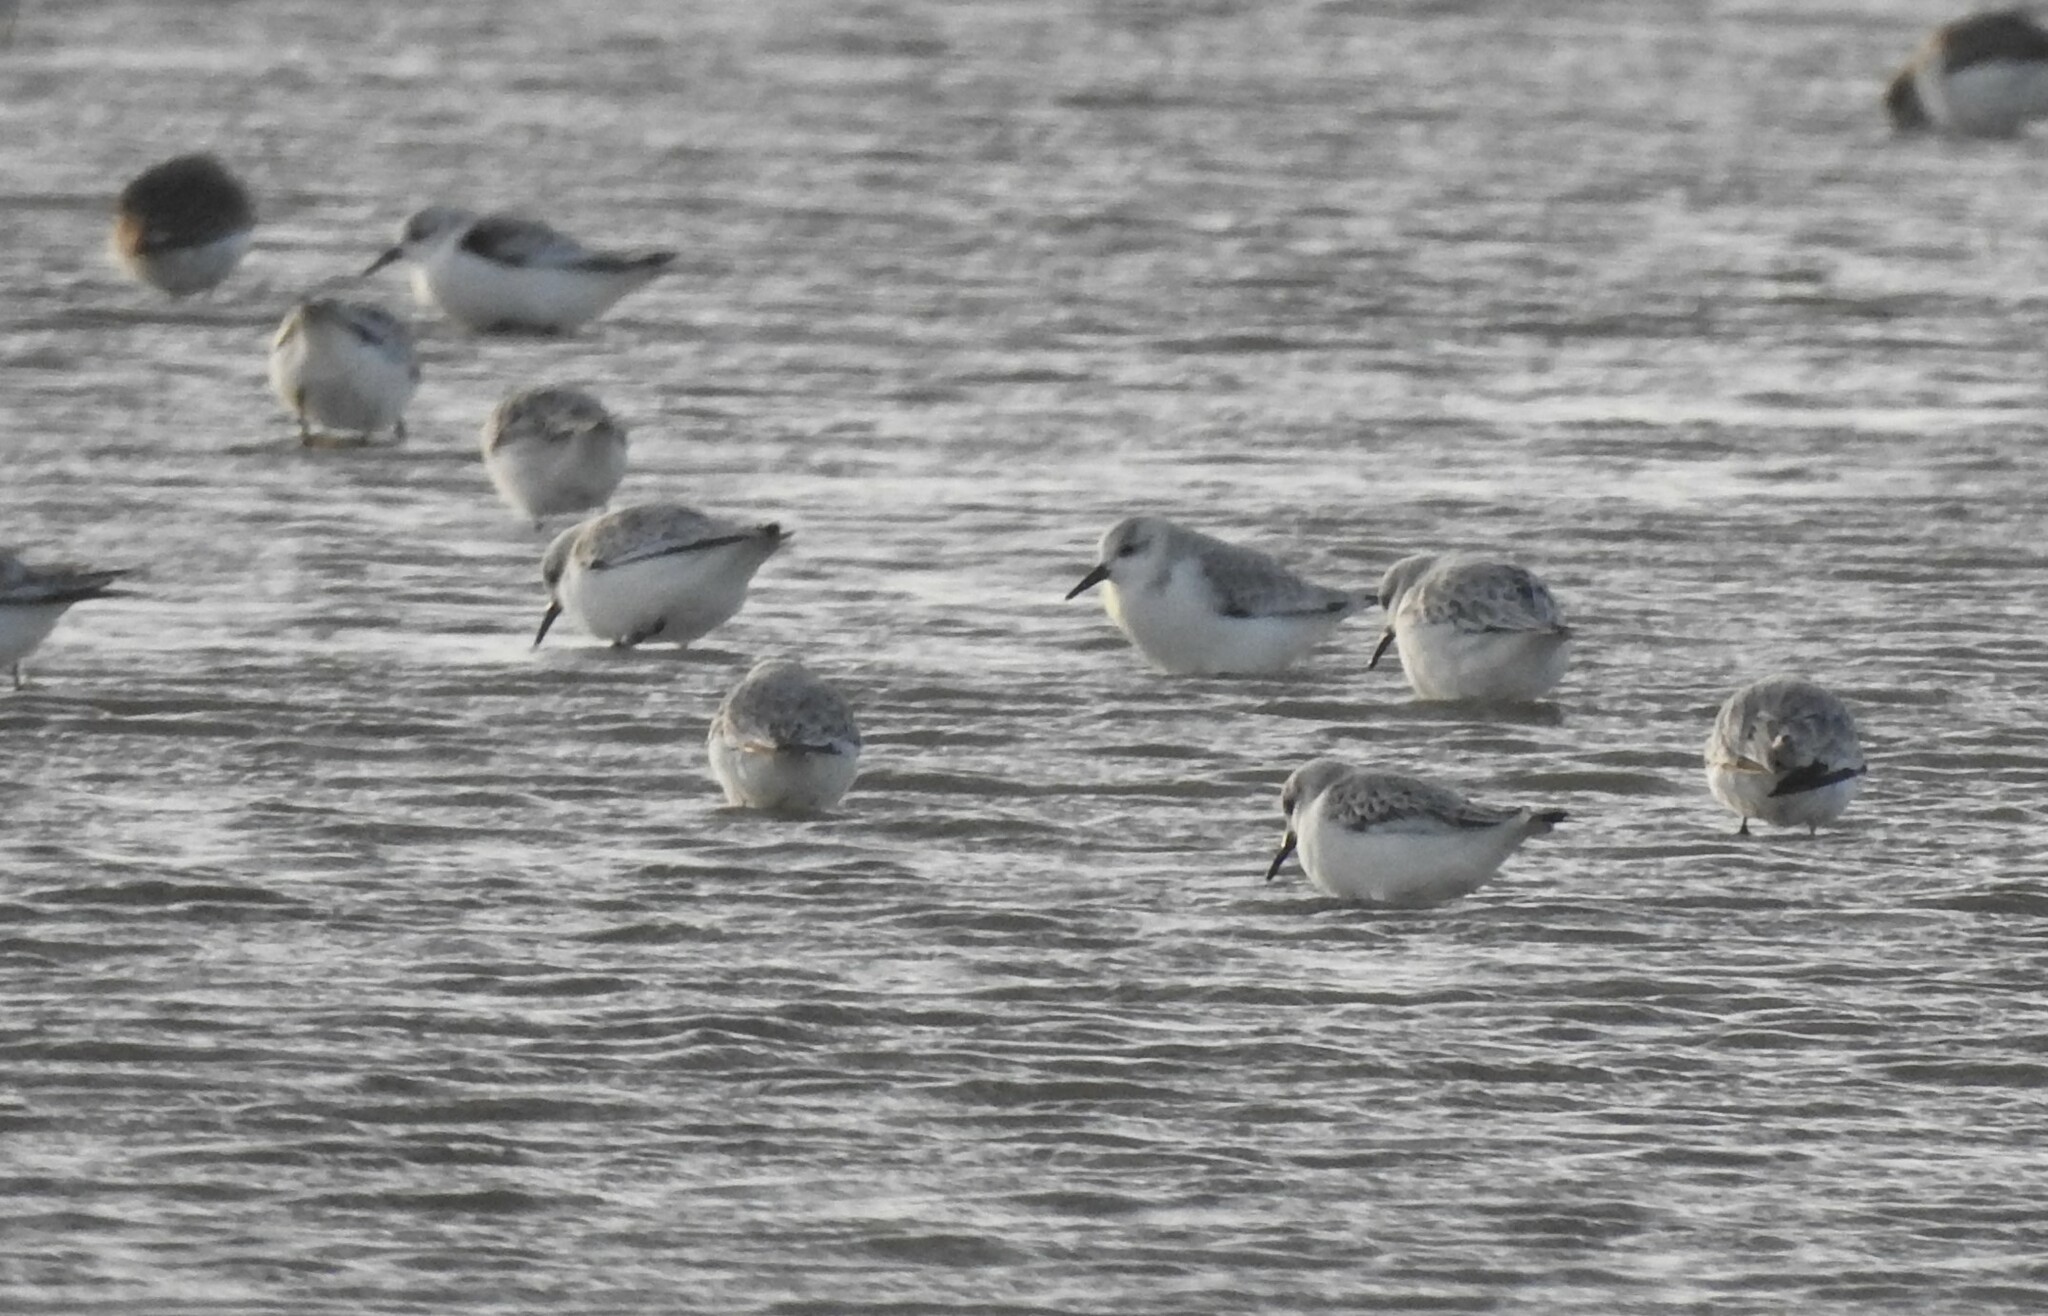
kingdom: Animalia
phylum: Chordata
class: Aves
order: Charadriiformes
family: Scolopacidae
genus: Calidris
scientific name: Calidris alba
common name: Sanderling
